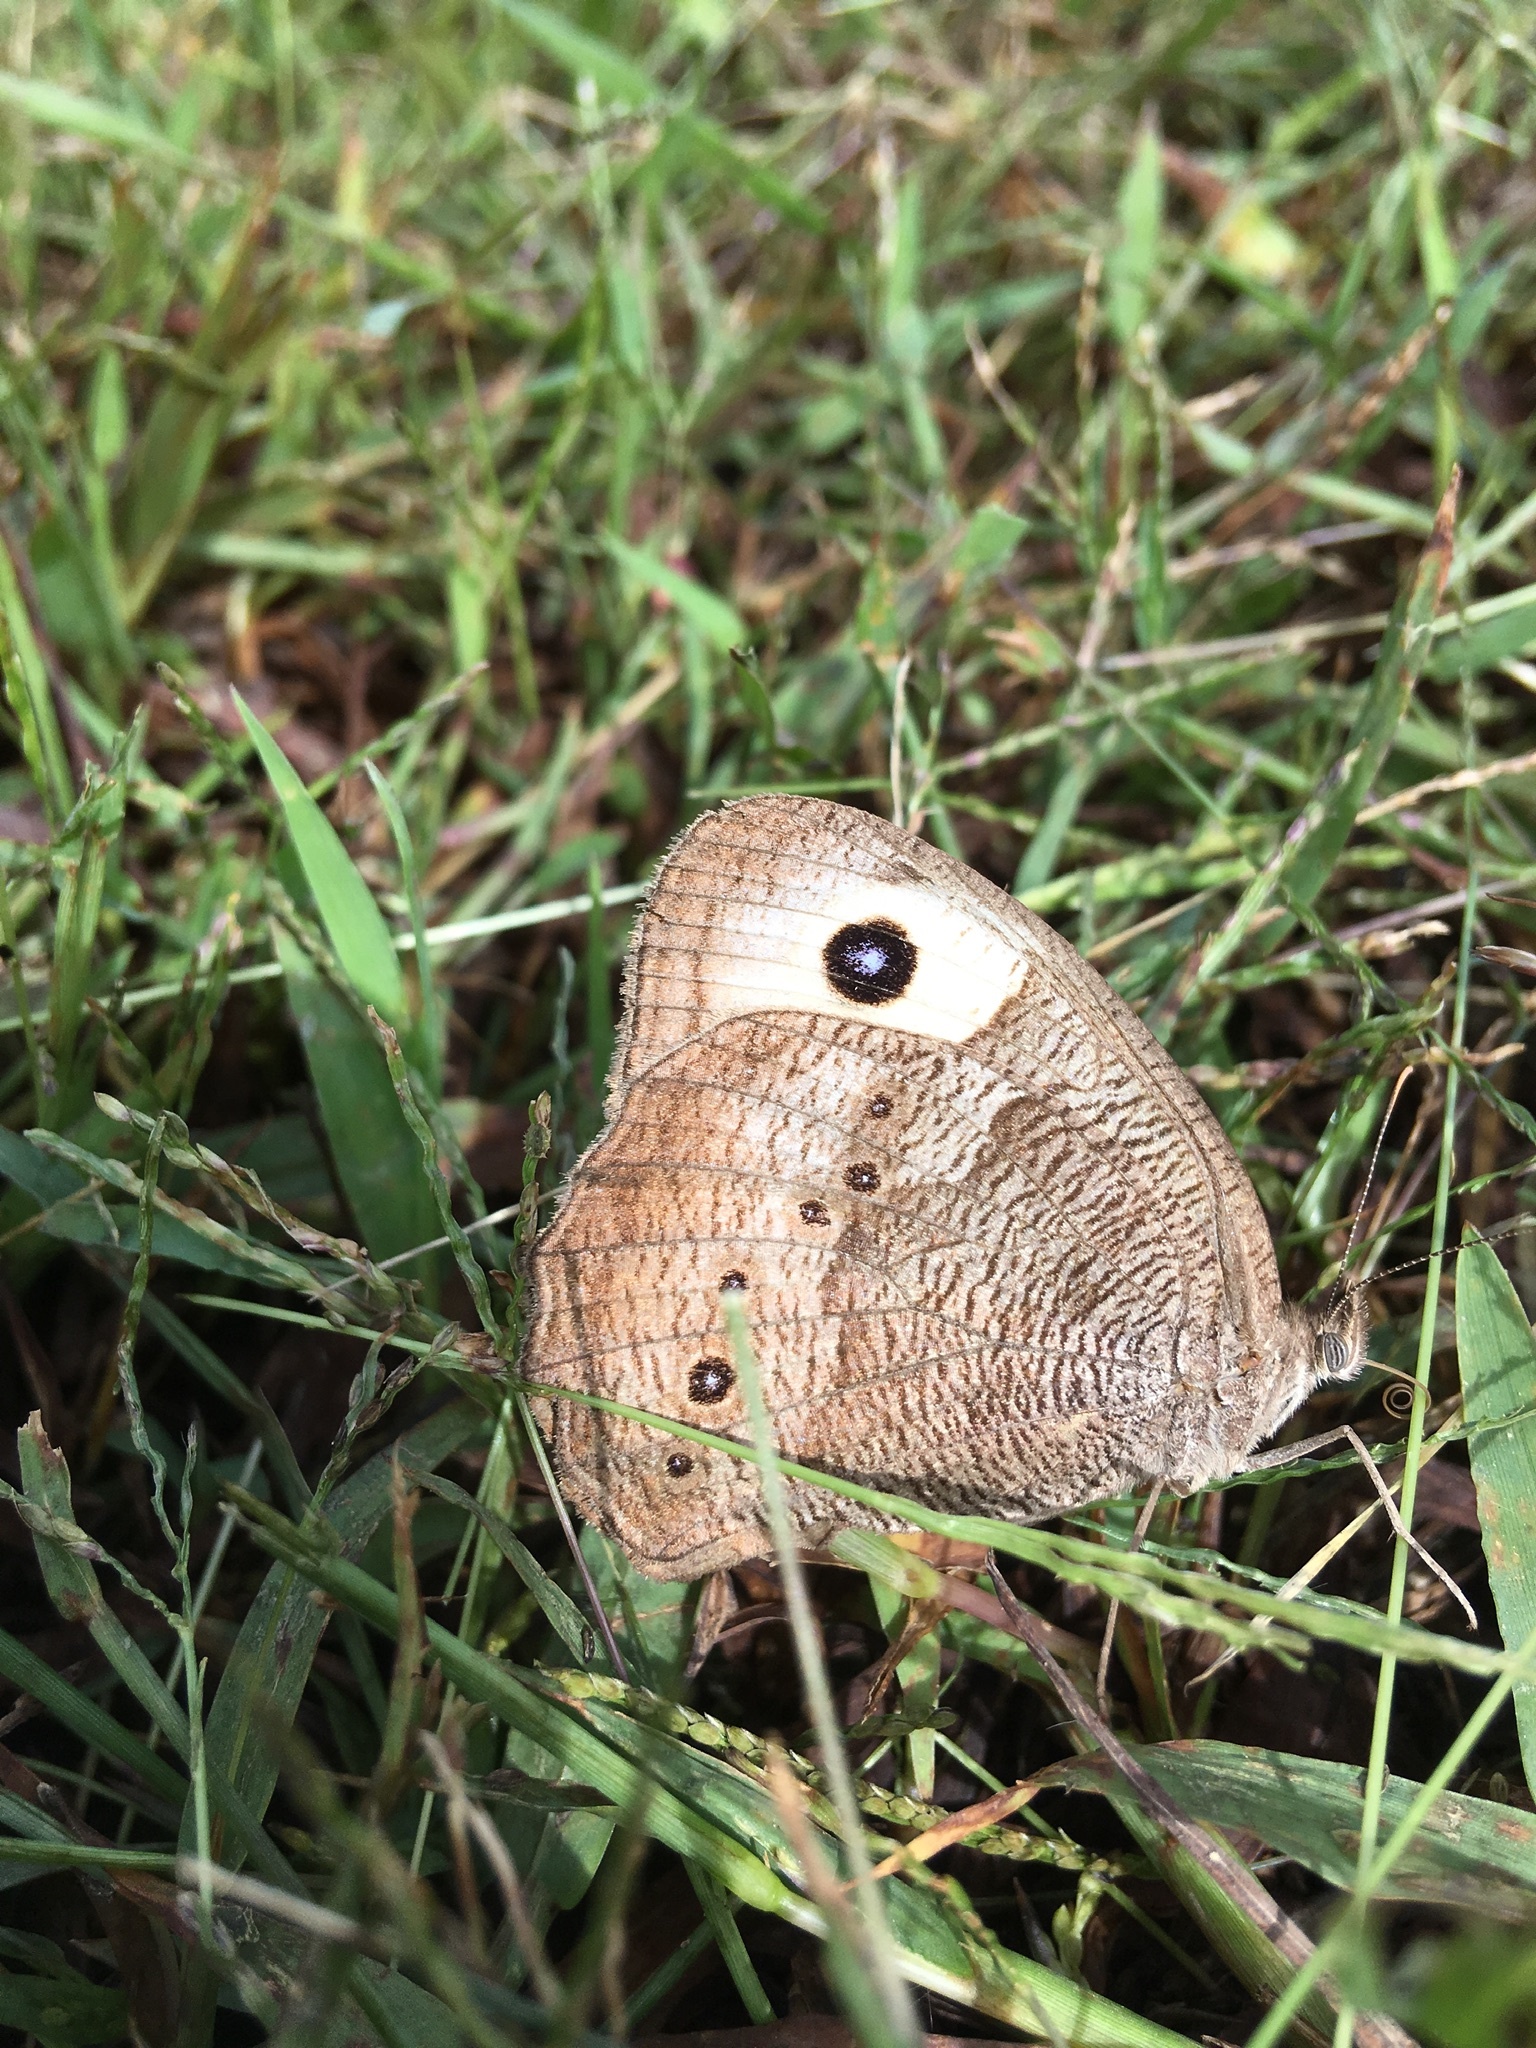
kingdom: Animalia
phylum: Arthropoda
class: Insecta
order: Lepidoptera
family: Nymphalidae
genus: Cercyonis
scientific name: Cercyonis pegala
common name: Common wood-nymph
